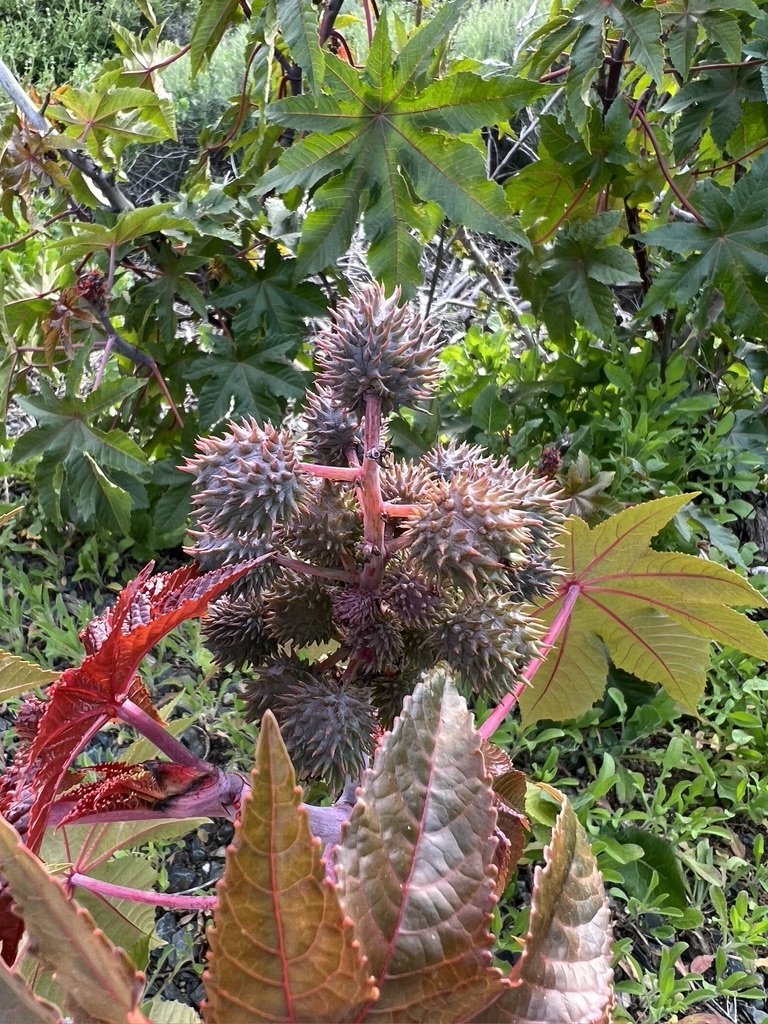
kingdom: Plantae
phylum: Tracheophyta
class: Magnoliopsida
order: Malpighiales
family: Euphorbiaceae
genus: Ricinus
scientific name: Ricinus communis
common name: Castor-oil-plant
